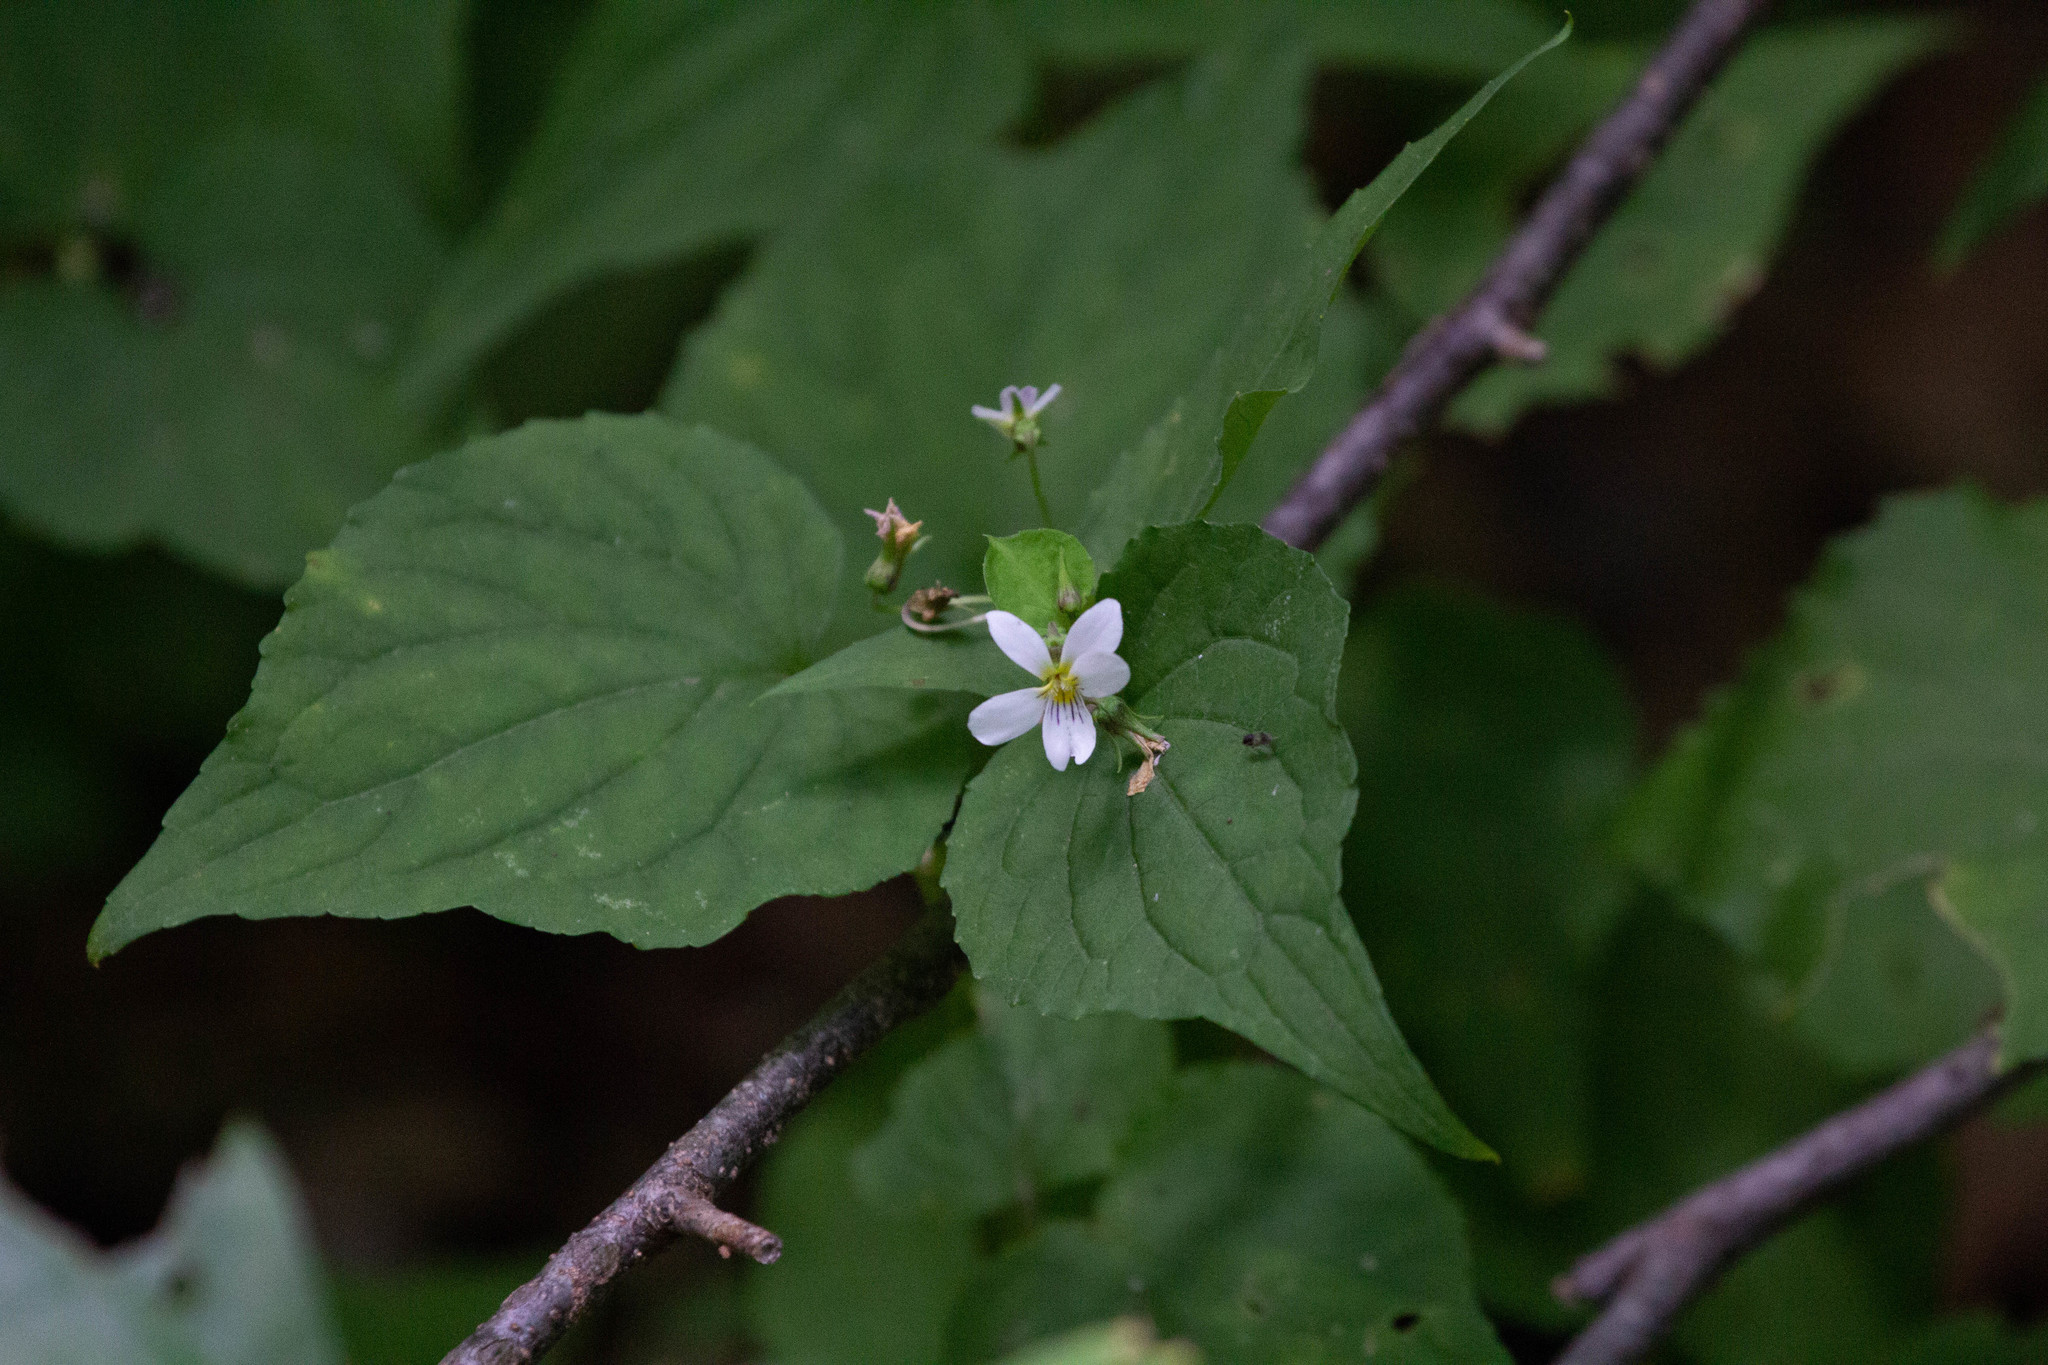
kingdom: Plantae
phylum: Tracheophyta
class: Magnoliopsida
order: Malpighiales
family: Violaceae
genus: Viola
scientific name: Viola canadensis
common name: Canada violet
